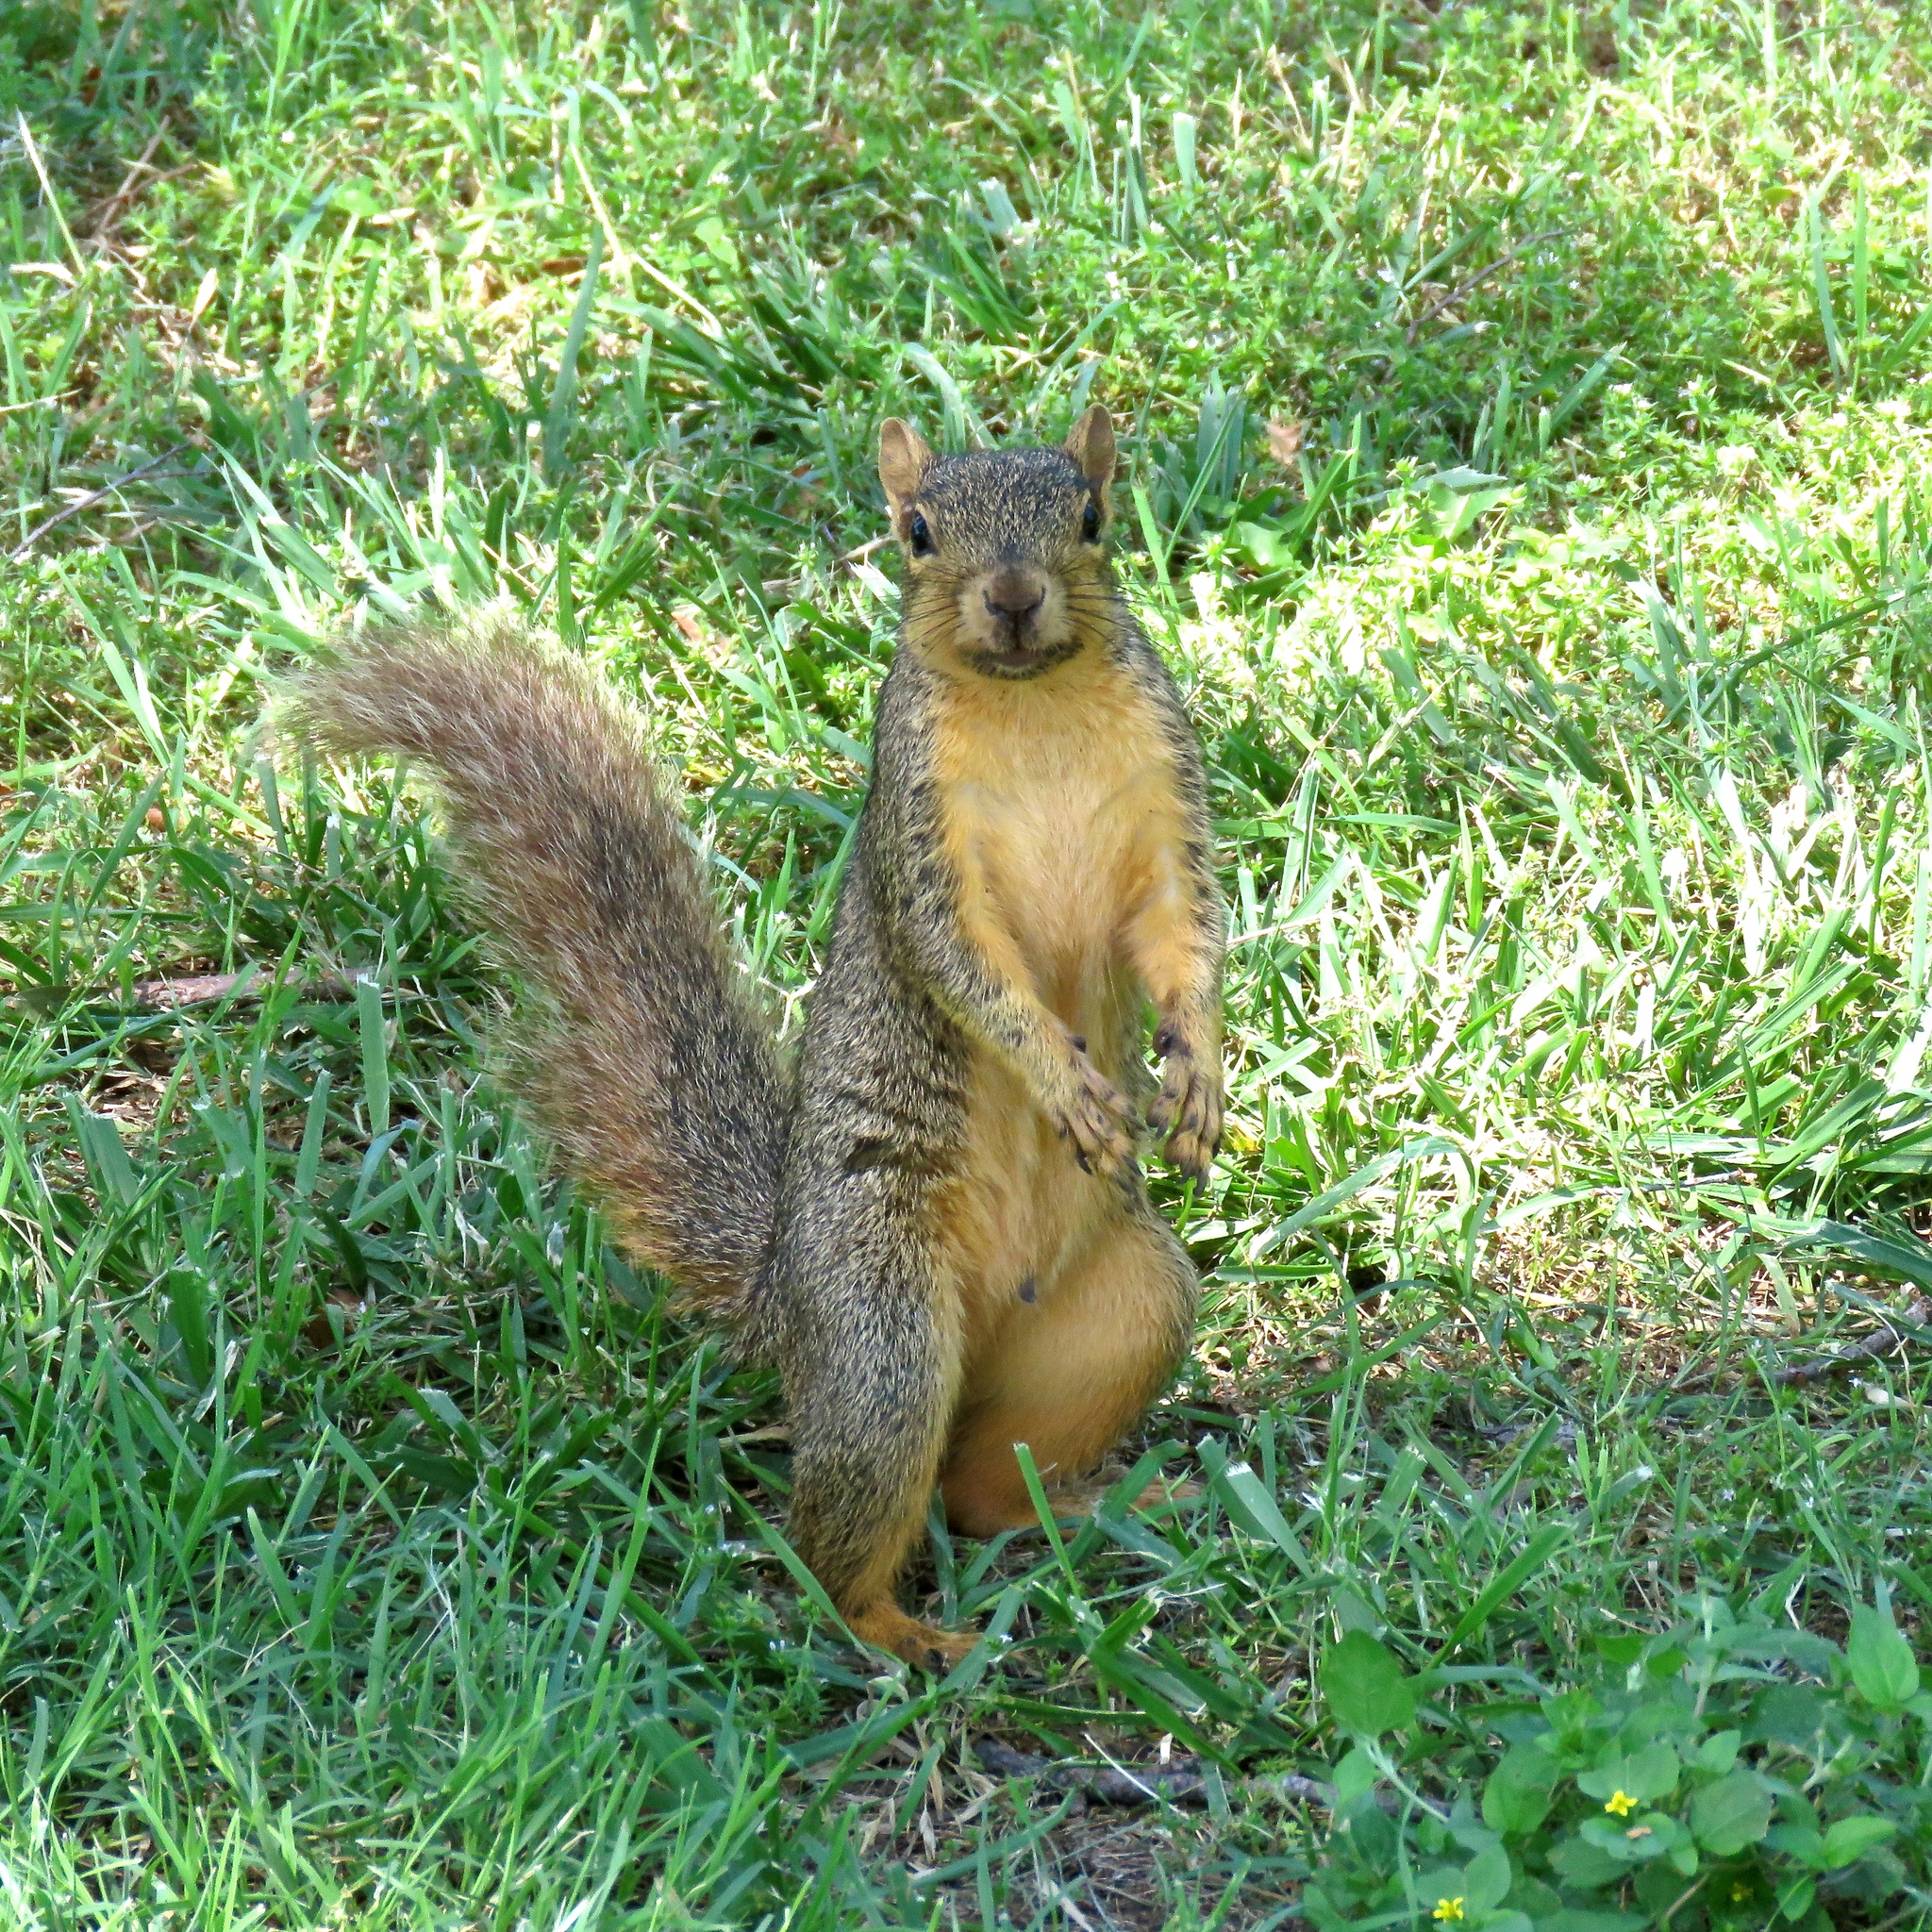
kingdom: Animalia
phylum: Chordata
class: Mammalia
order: Rodentia
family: Sciuridae
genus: Sciurus
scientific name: Sciurus niger
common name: Fox squirrel
